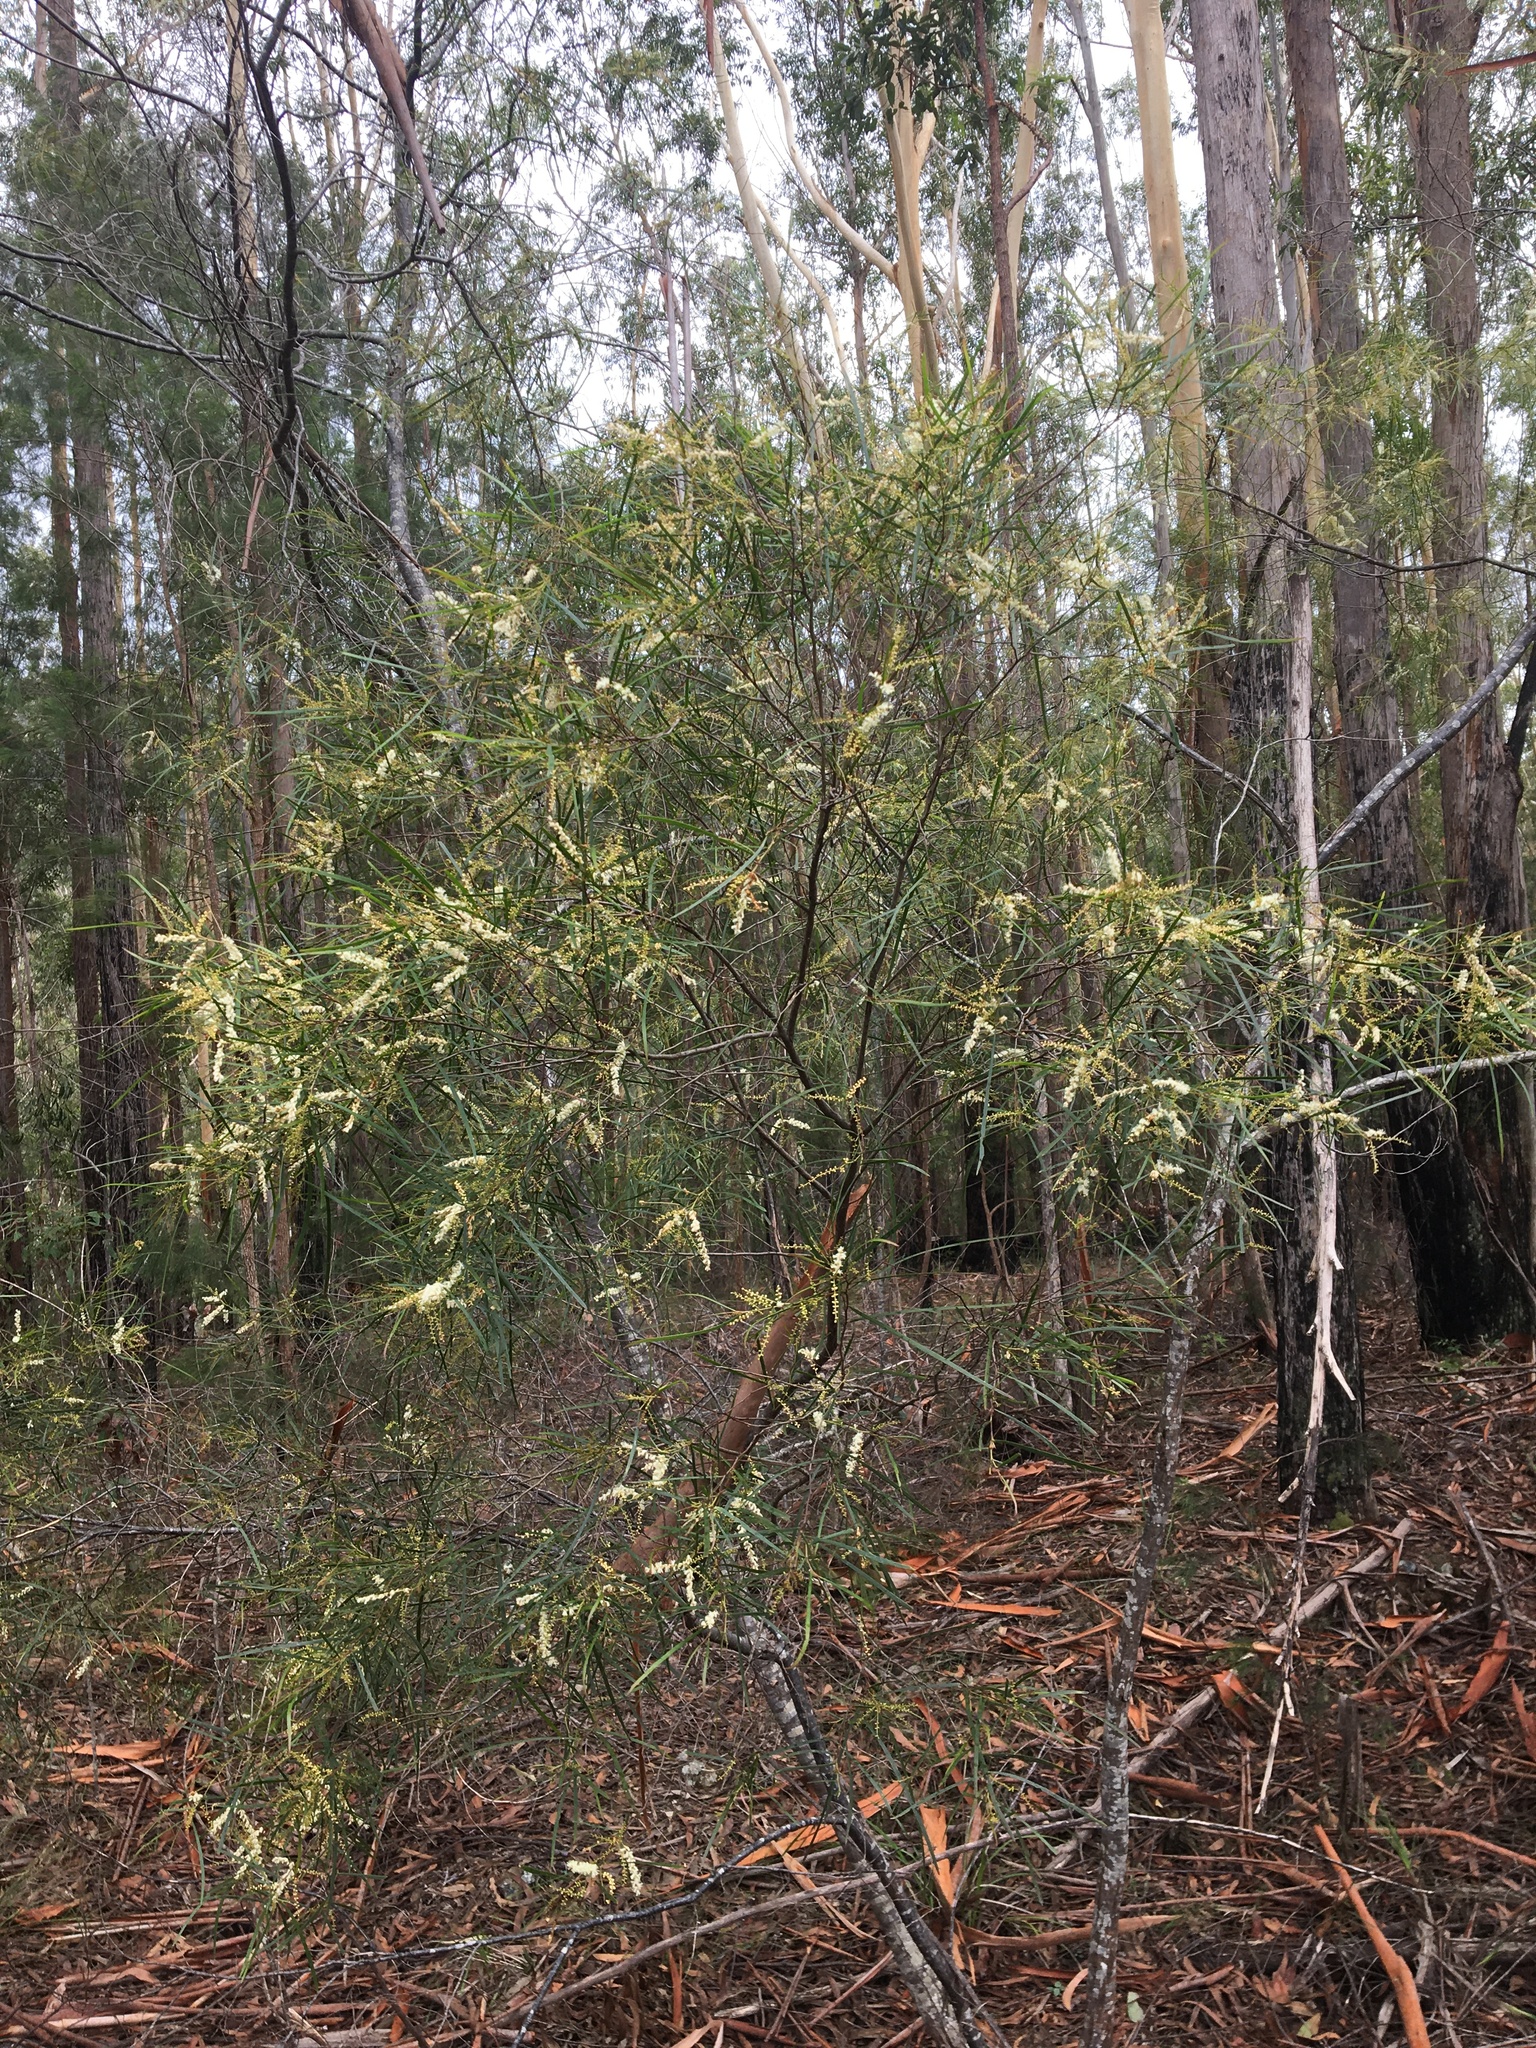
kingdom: Plantae
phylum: Tracheophyta
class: Magnoliopsida
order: Fabales
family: Fabaceae
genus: Acacia
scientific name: Acacia longissima
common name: Longleaf wattle
